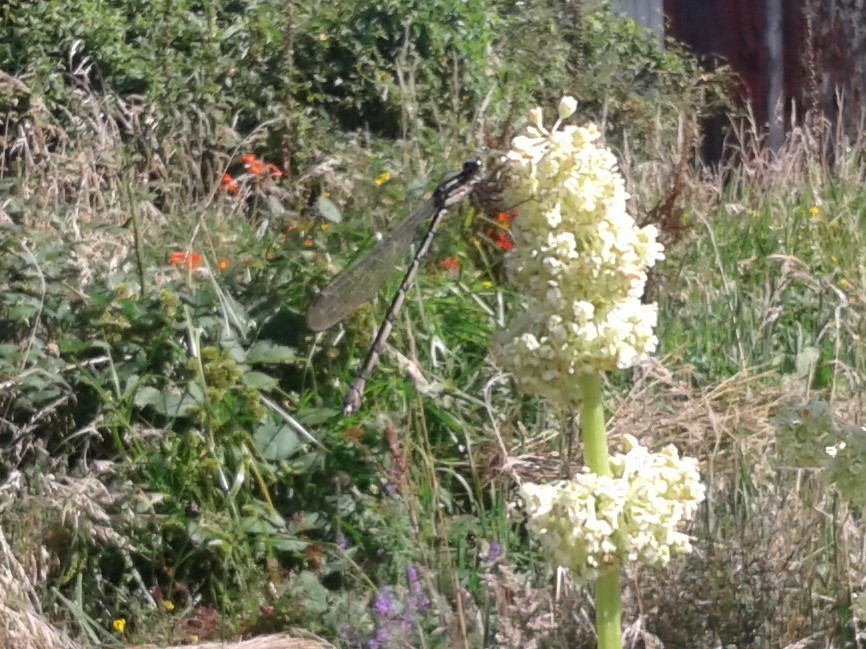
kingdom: Animalia
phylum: Arthropoda
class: Insecta
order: Odonata
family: Lestidae
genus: Austrolestes
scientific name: Austrolestes colensonis
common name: Blue damselfly
